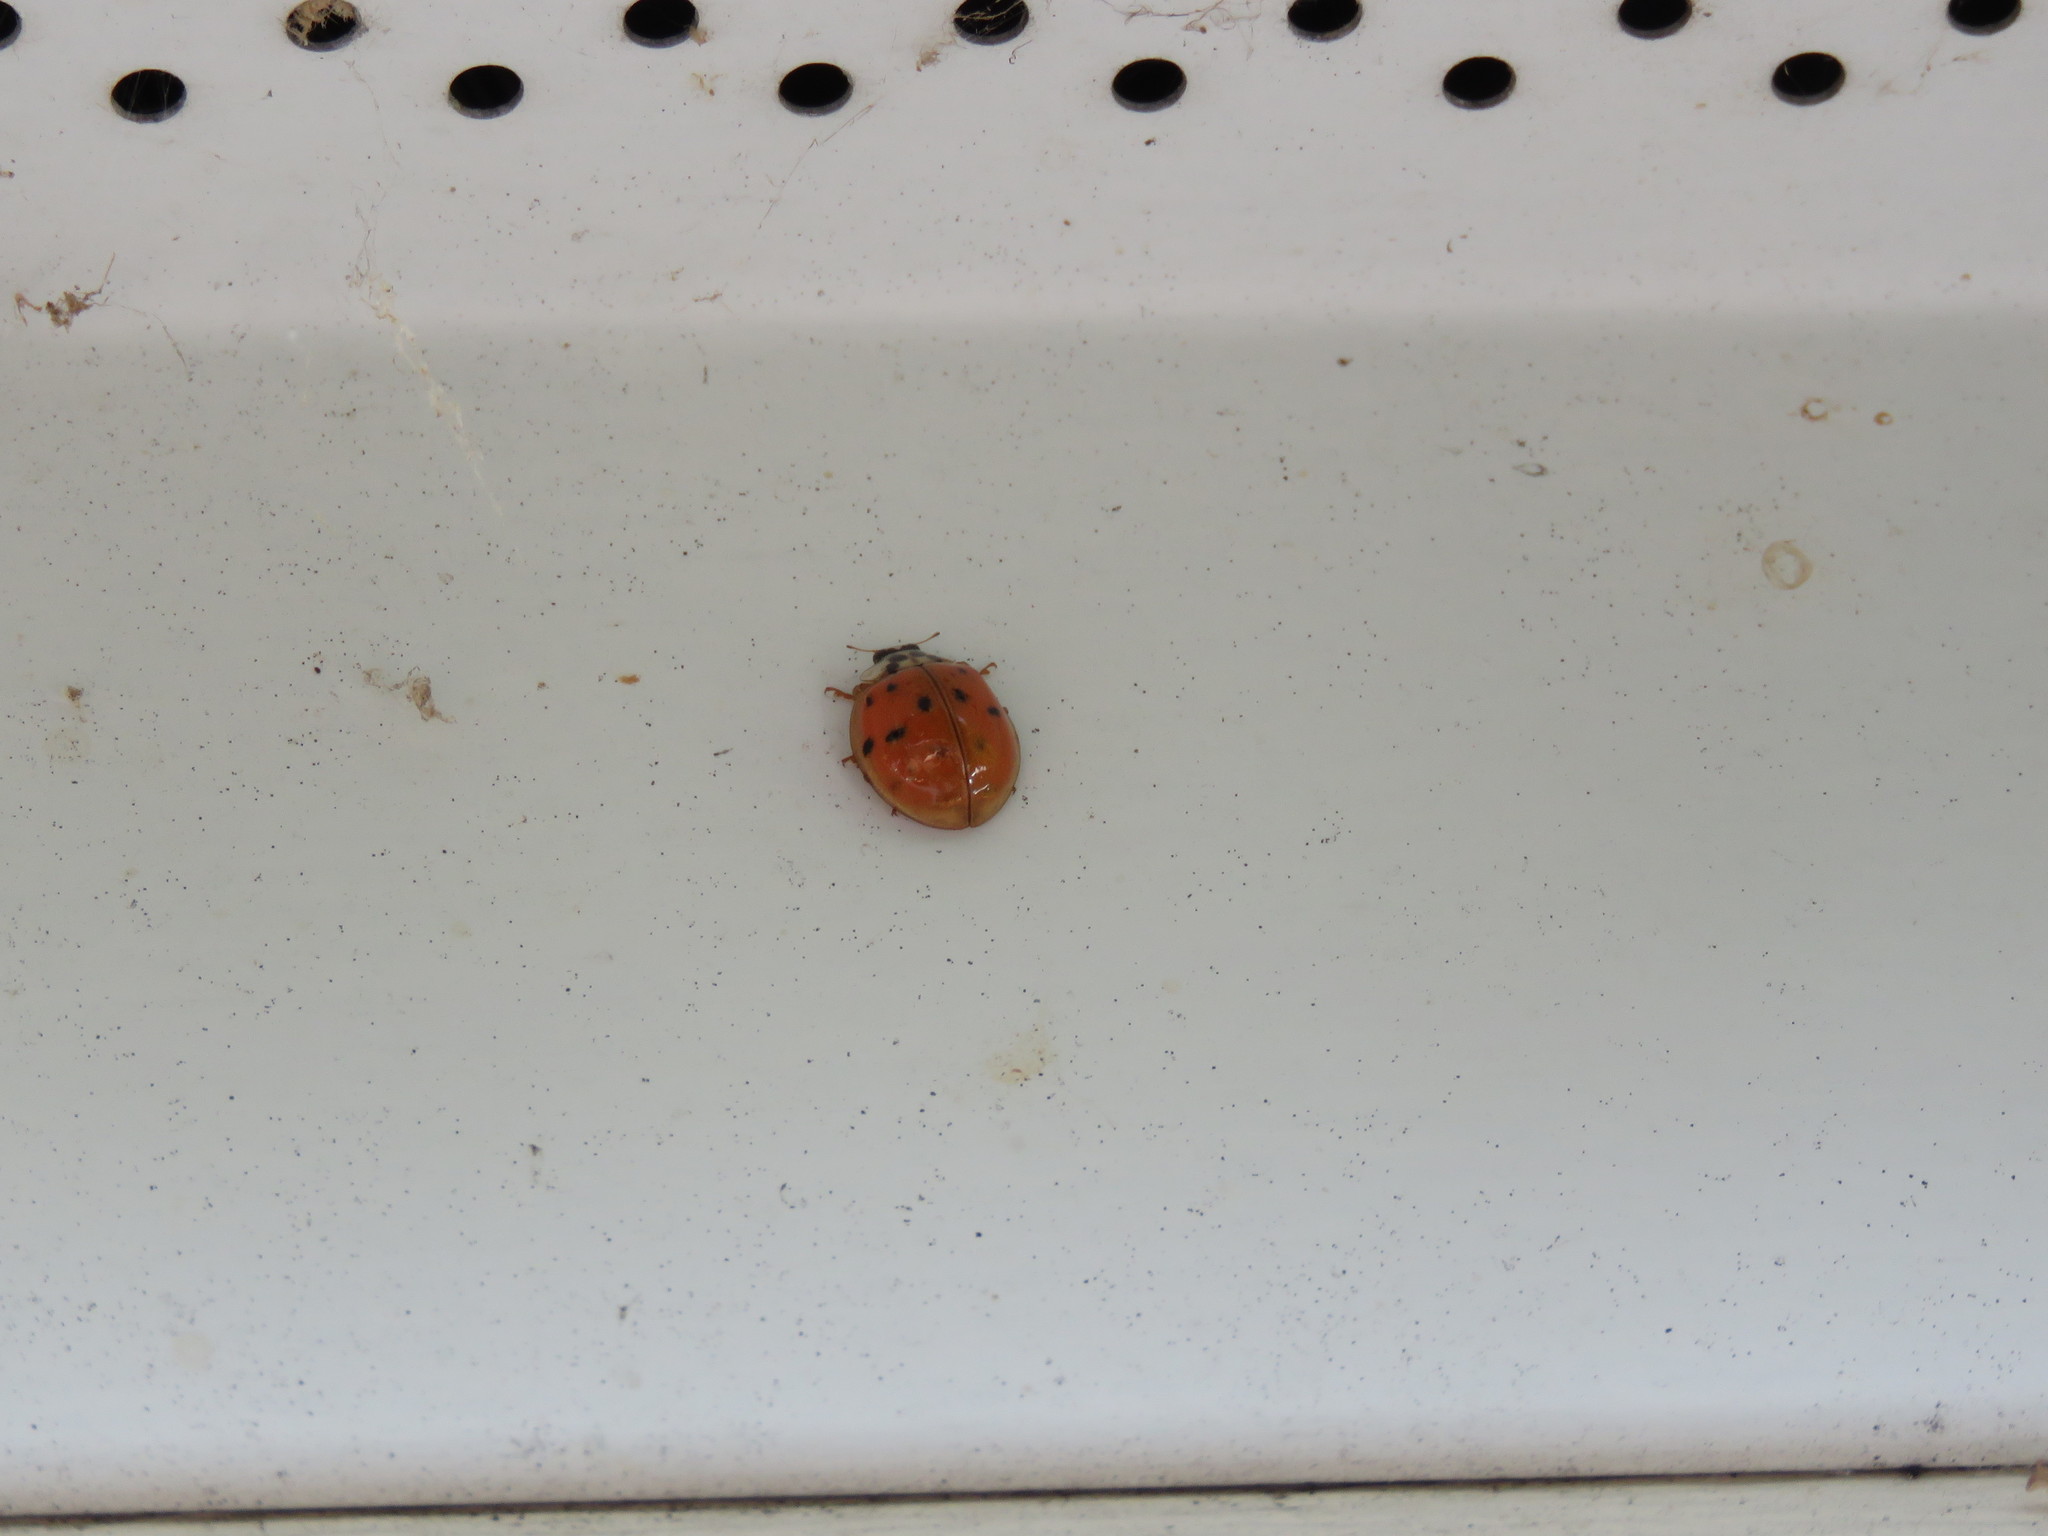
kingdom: Animalia
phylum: Arthropoda
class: Insecta
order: Coleoptera
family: Coccinellidae
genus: Harmonia
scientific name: Harmonia axyridis
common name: Harlequin ladybird
